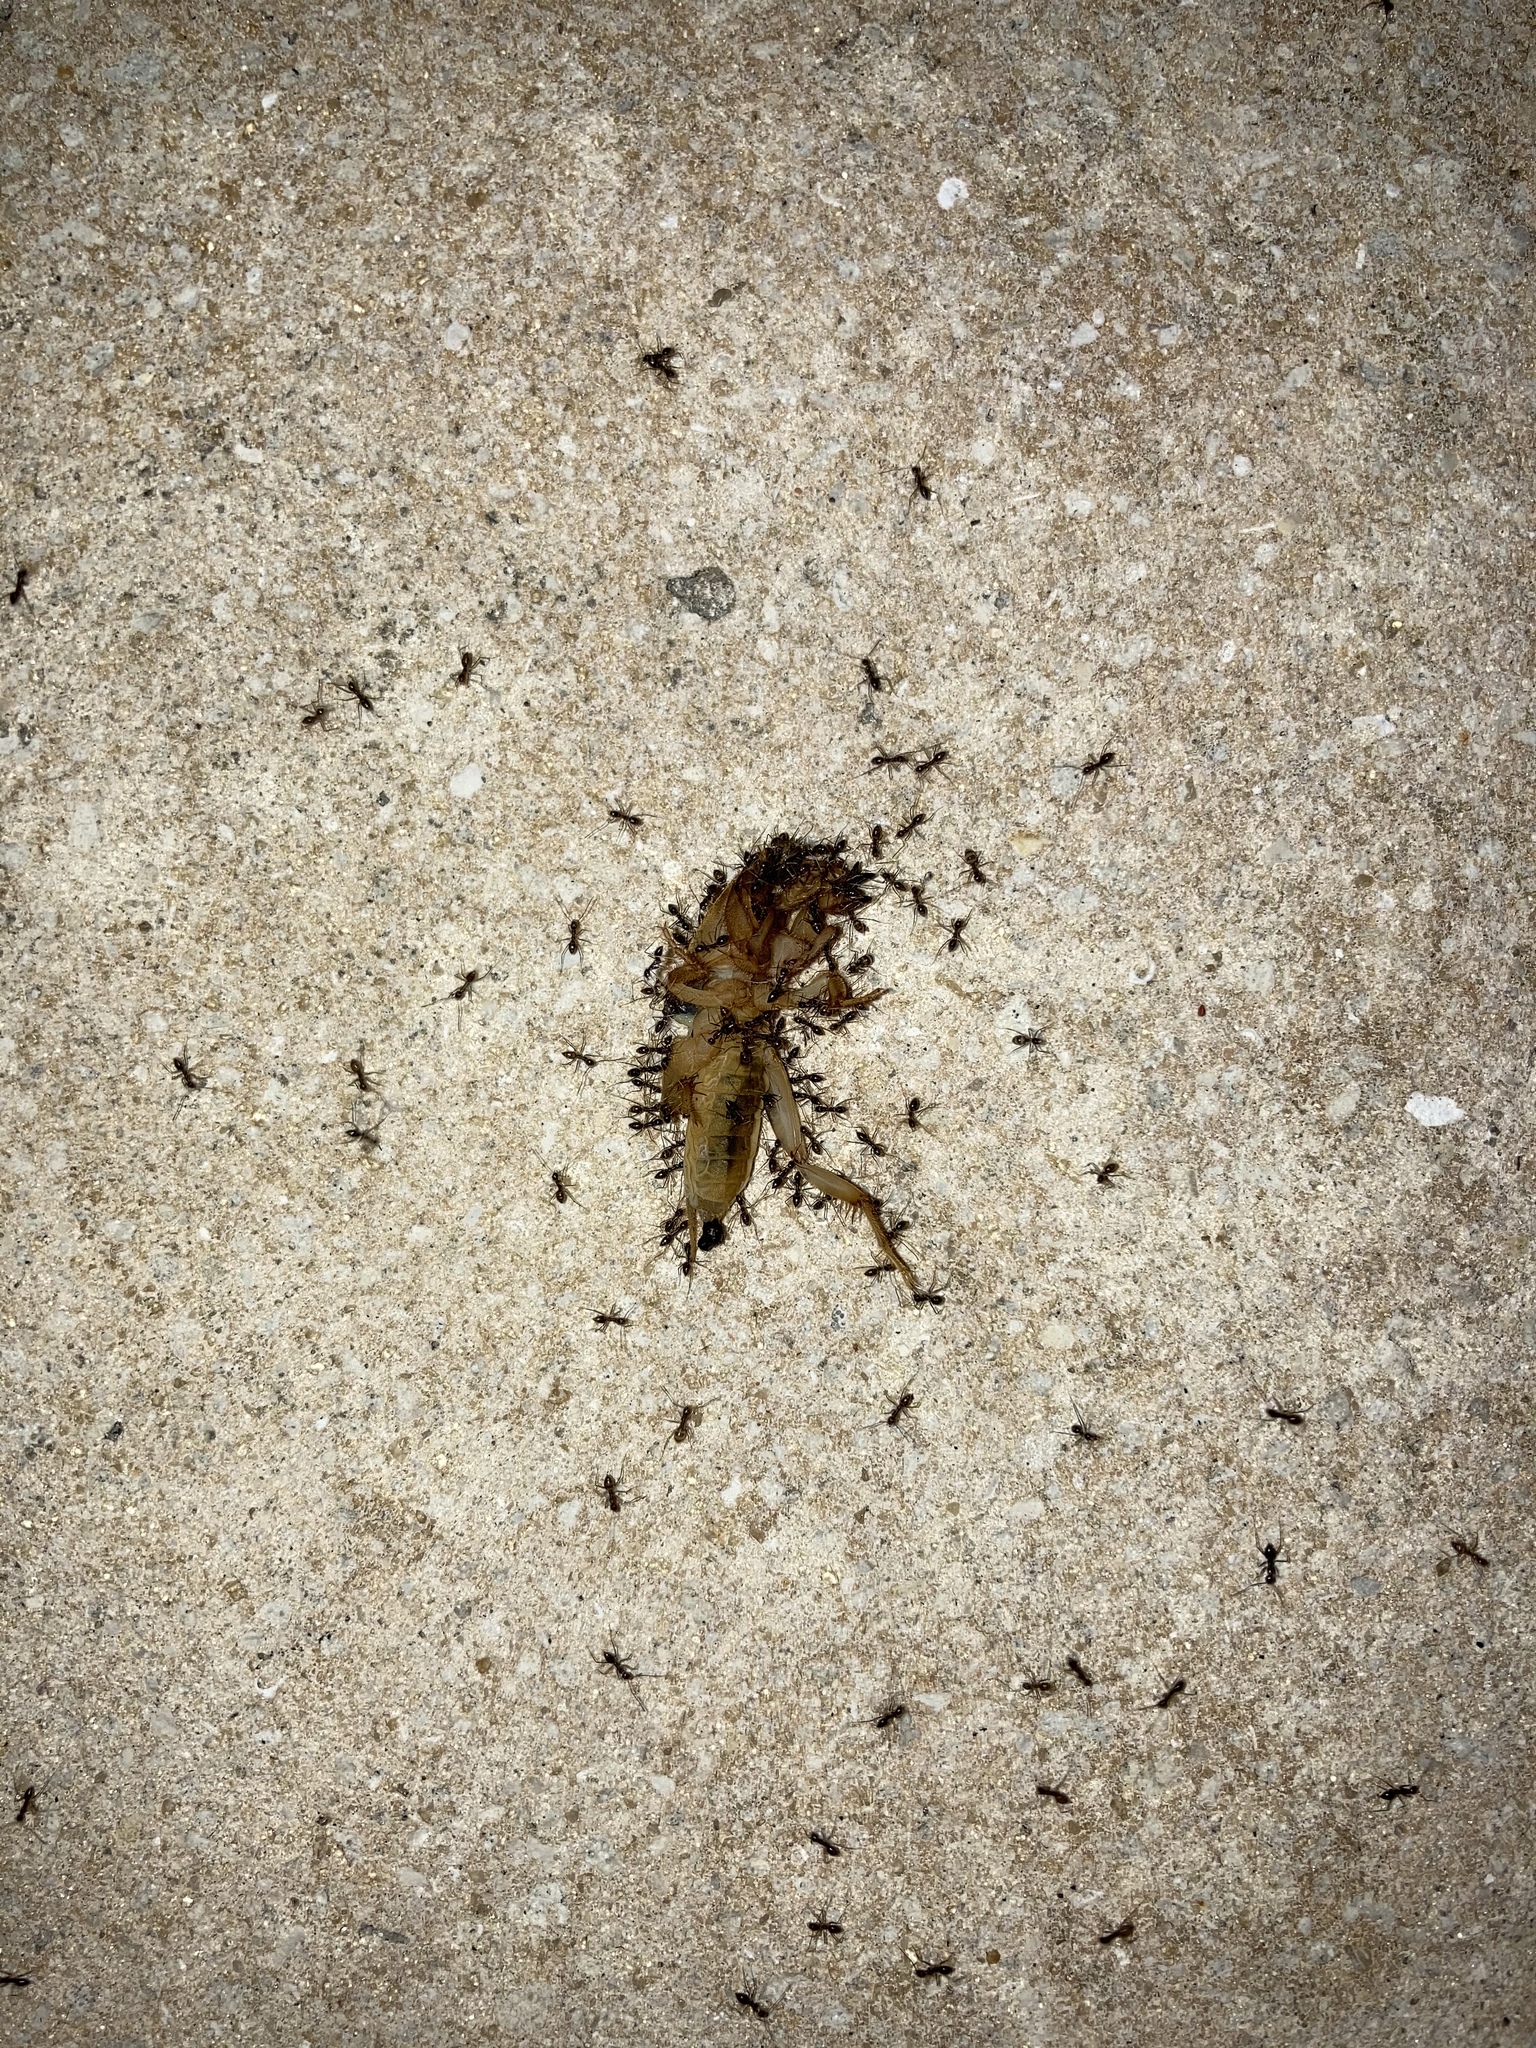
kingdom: Animalia
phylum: Arthropoda
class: Insecta
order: Hymenoptera
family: Formicidae
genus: Paratrechina
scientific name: Paratrechina longicornis
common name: Longhorned crazy ant
